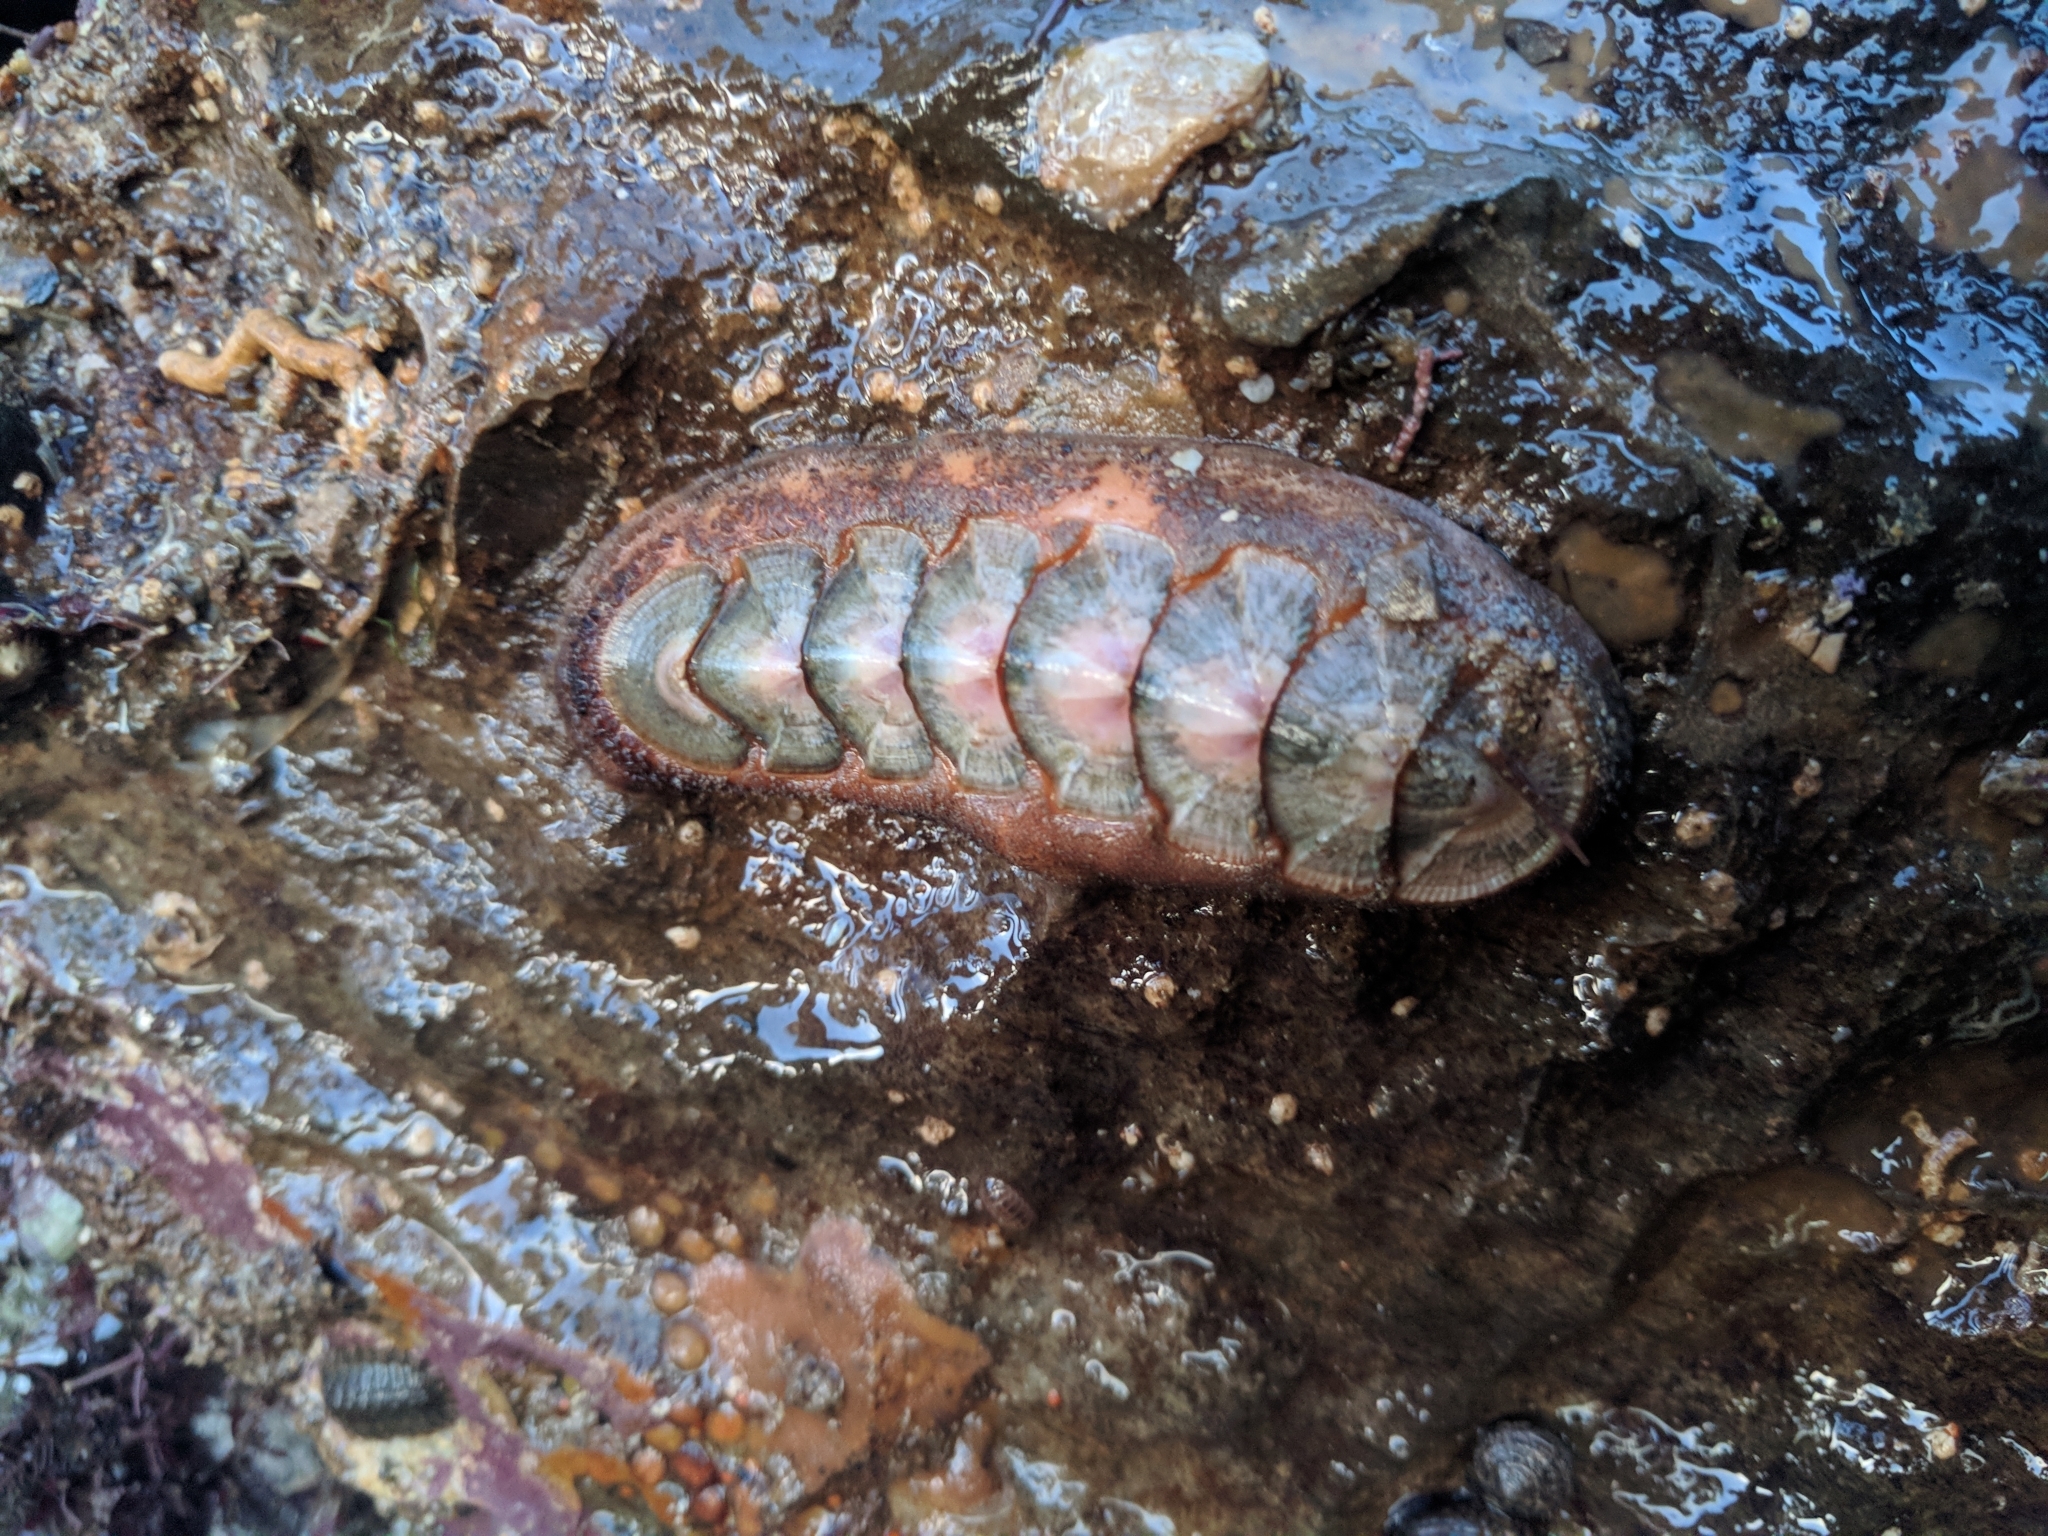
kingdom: Animalia
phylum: Mollusca
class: Polyplacophora
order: Chitonida
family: Ischnochitonidae
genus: Stenoplax
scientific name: Stenoplax conspicua
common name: Conspicuous chiton
